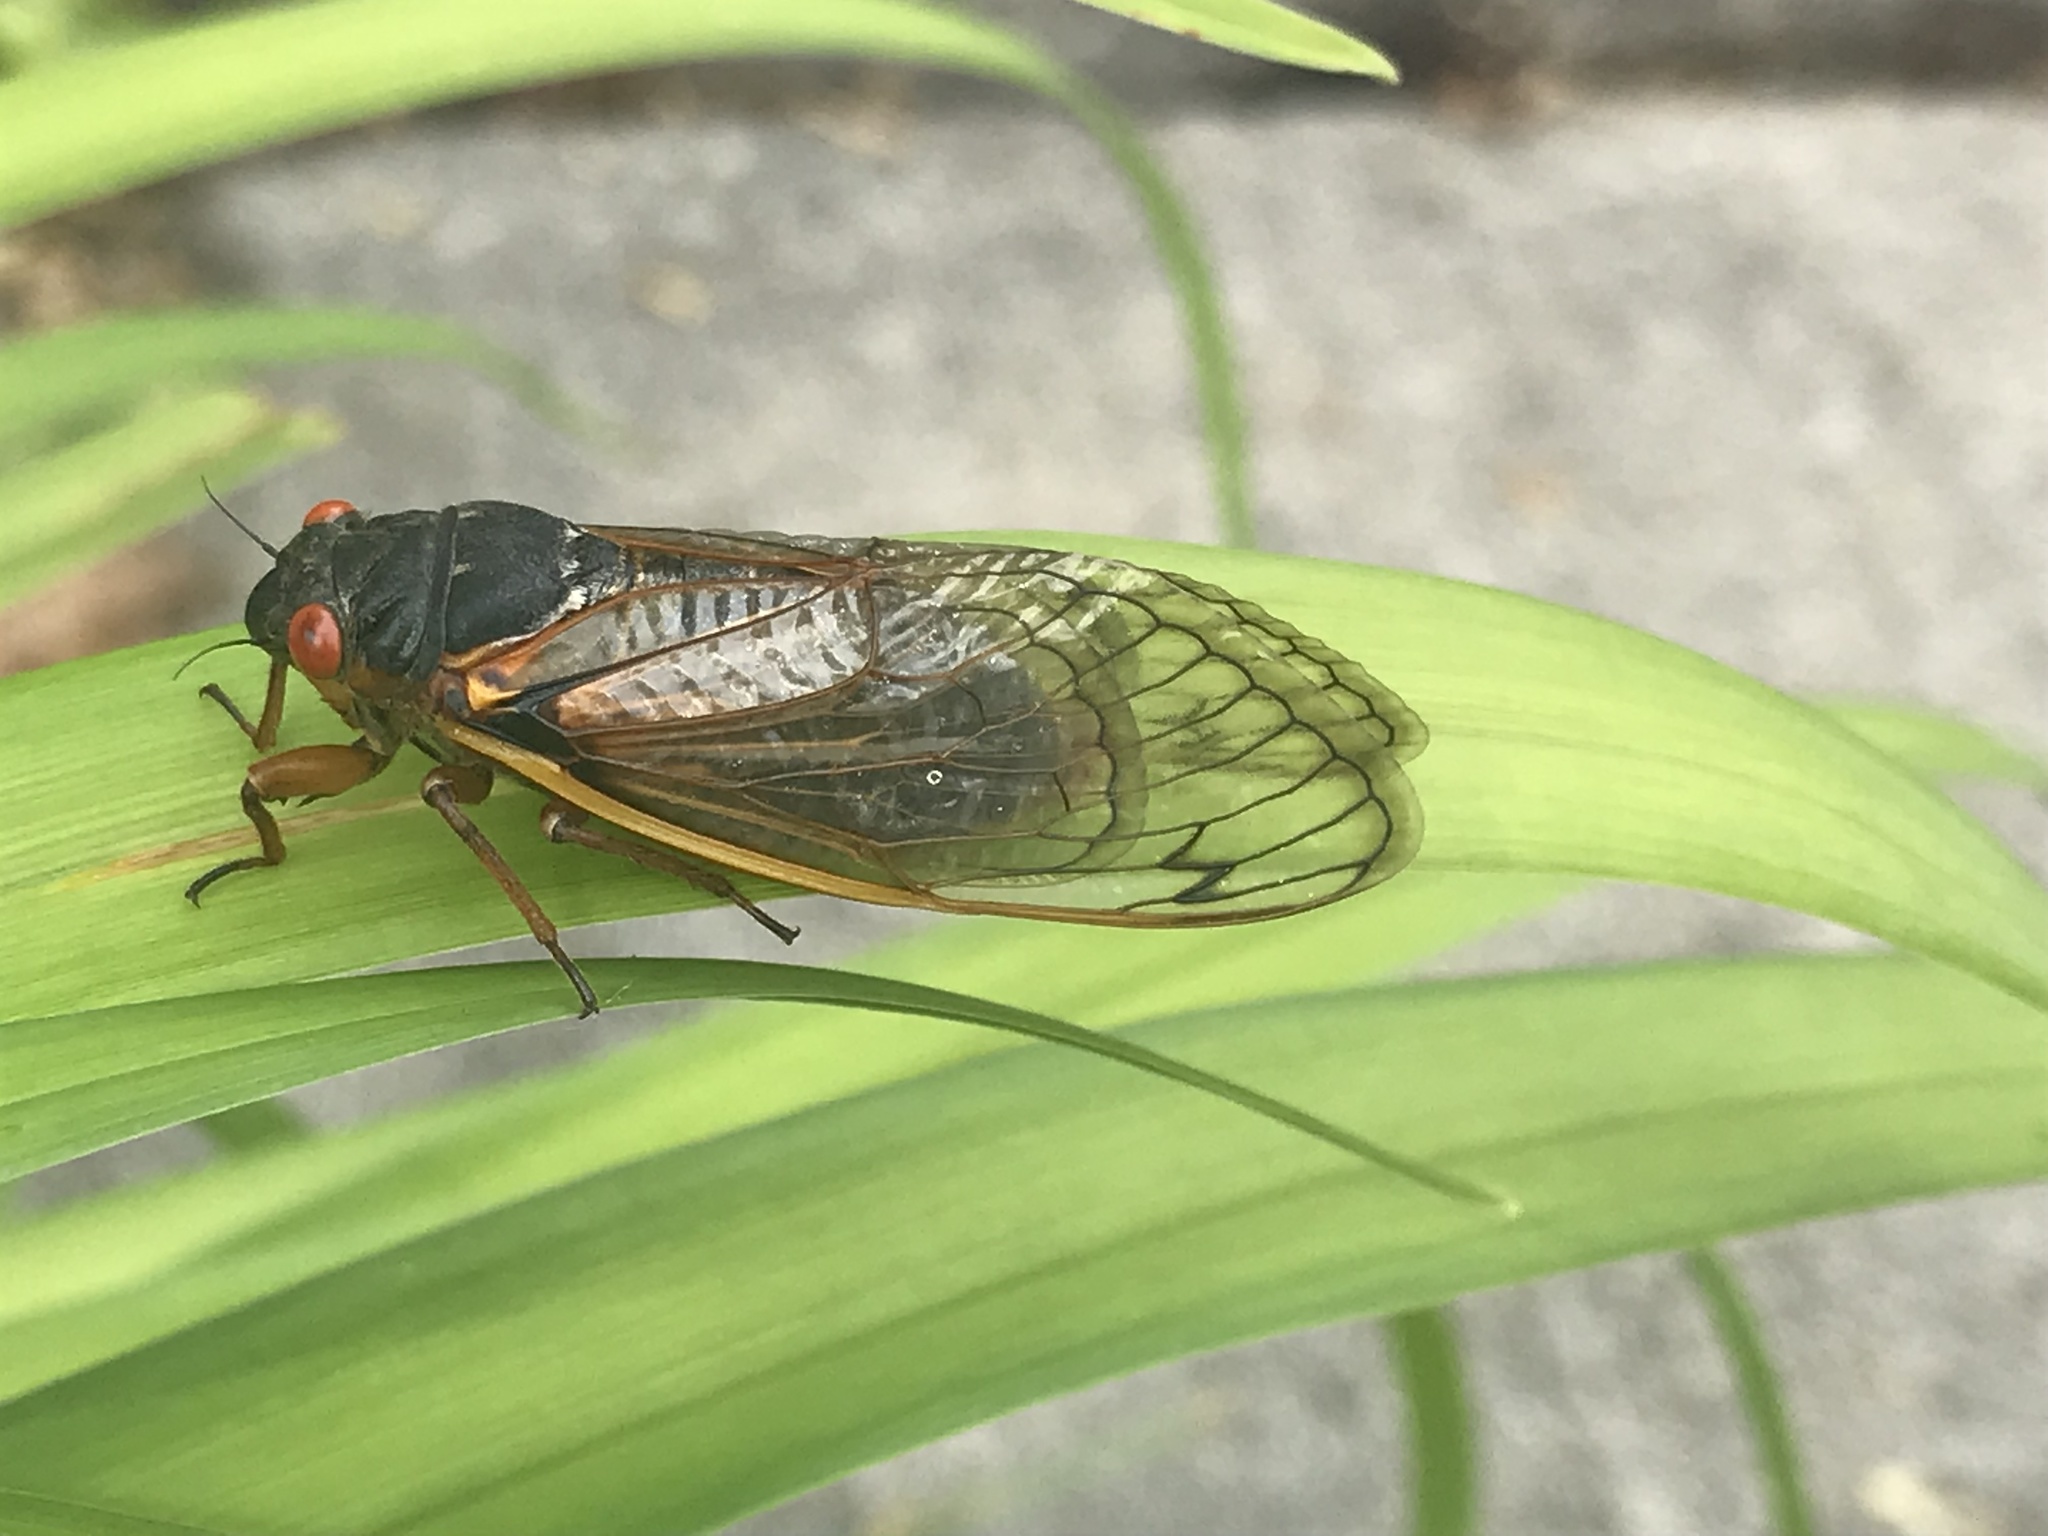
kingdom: Animalia
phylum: Arthropoda
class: Insecta
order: Hemiptera
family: Cicadidae
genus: Magicicada
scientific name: Magicicada septendecim
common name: Periodical cicada
